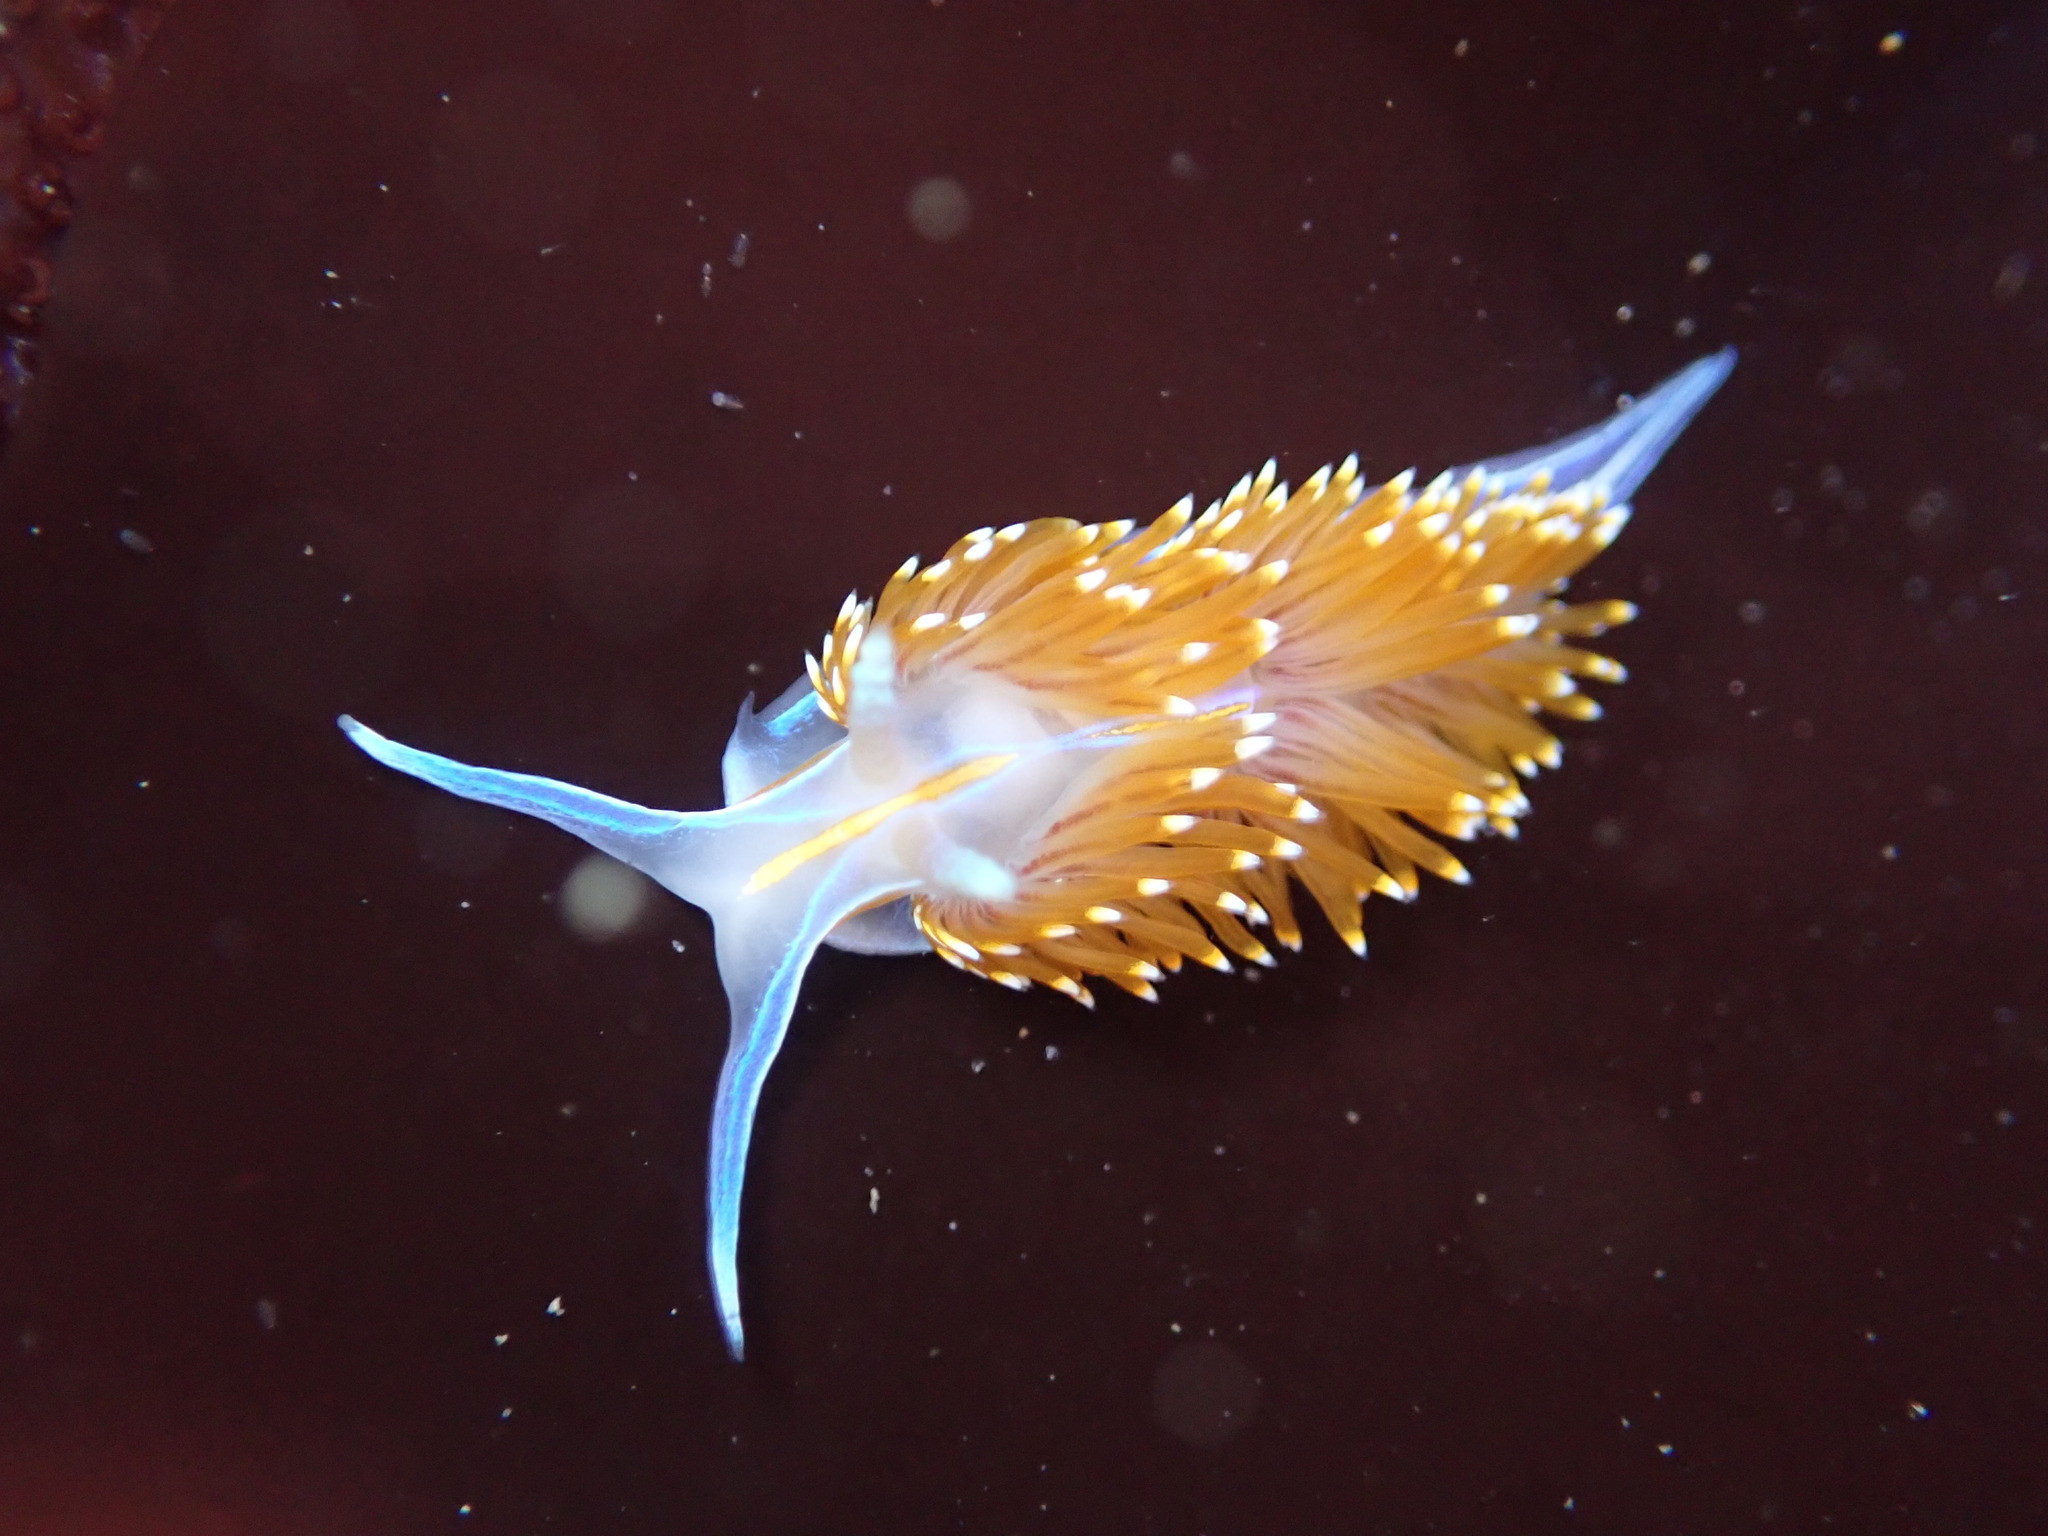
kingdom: Animalia
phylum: Mollusca
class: Gastropoda
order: Nudibranchia
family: Myrrhinidae
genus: Hermissenda
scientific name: Hermissenda opalescens
